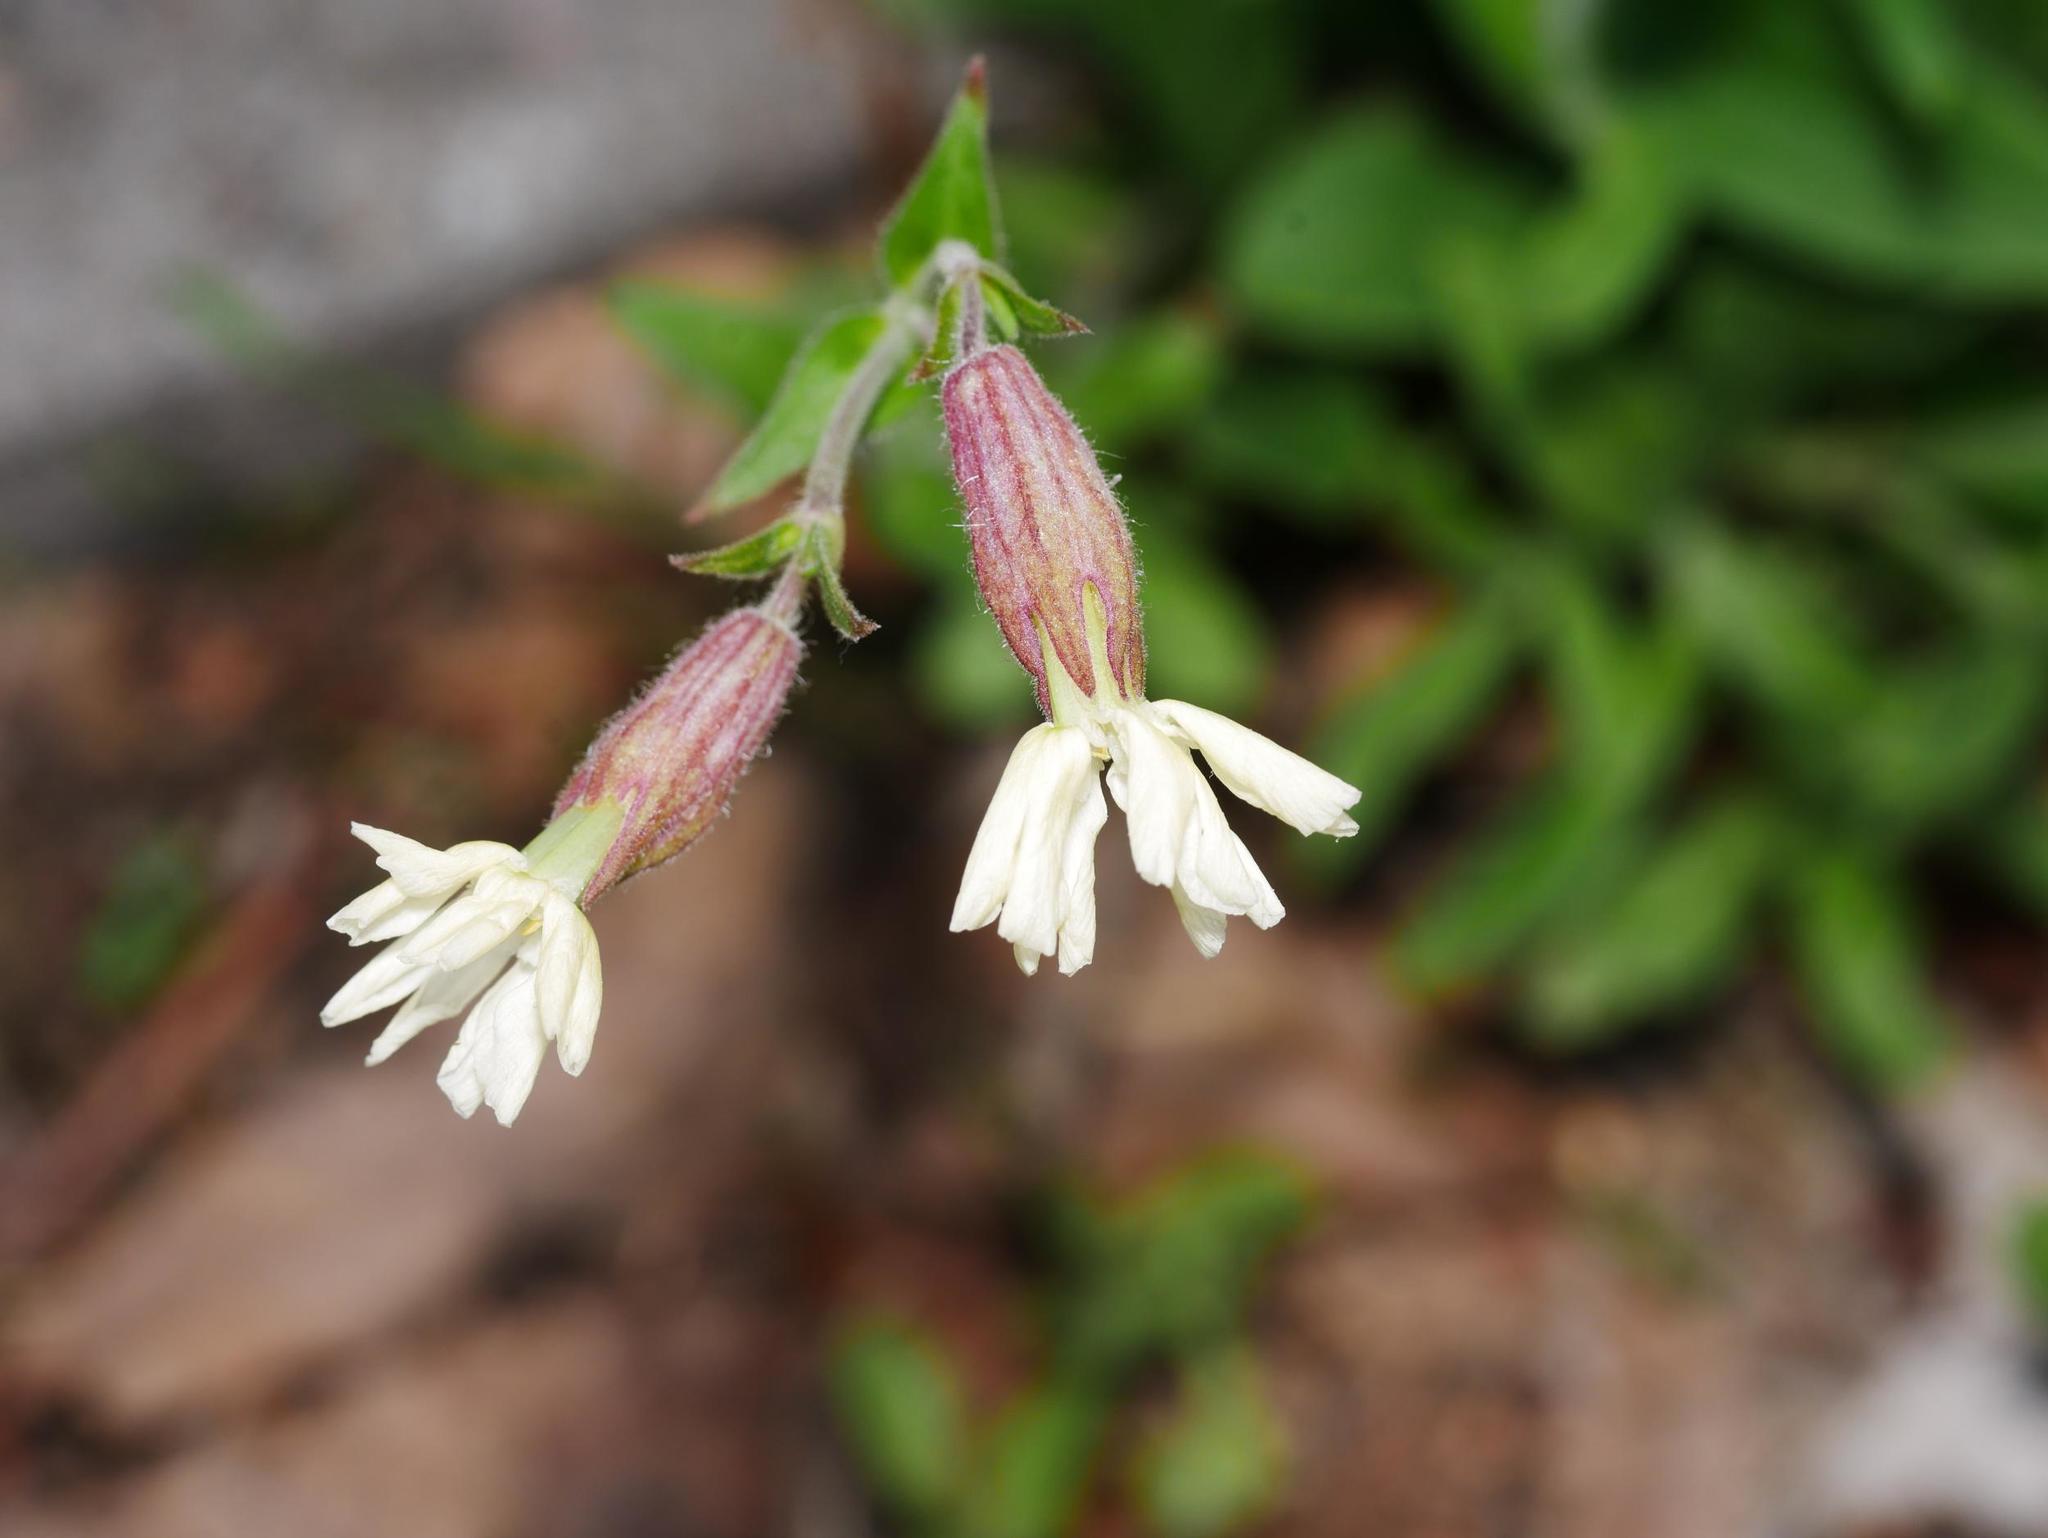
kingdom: Plantae
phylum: Tracheophyta
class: Magnoliopsida
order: Caryophyllales
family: Caryophyllaceae
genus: Silene
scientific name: Silene latifolia
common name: White campion
